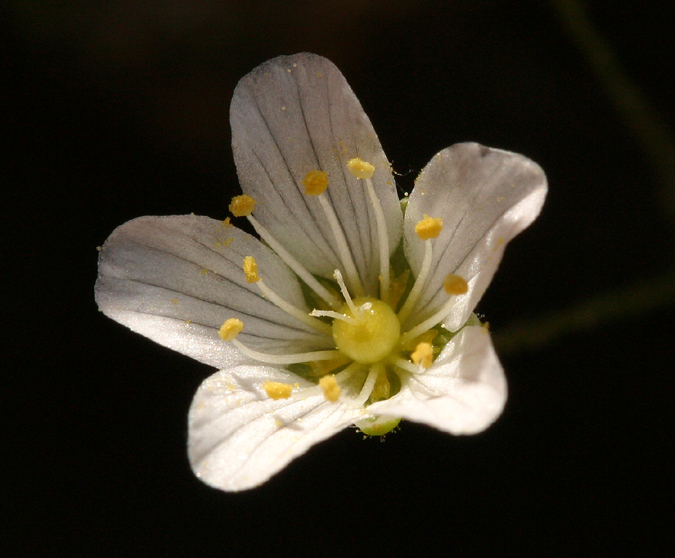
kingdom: Plantae
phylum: Tracheophyta
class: Magnoliopsida
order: Caryophyllales
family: Caryophyllaceae
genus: Sabulina
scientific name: Sabulina douglasii
